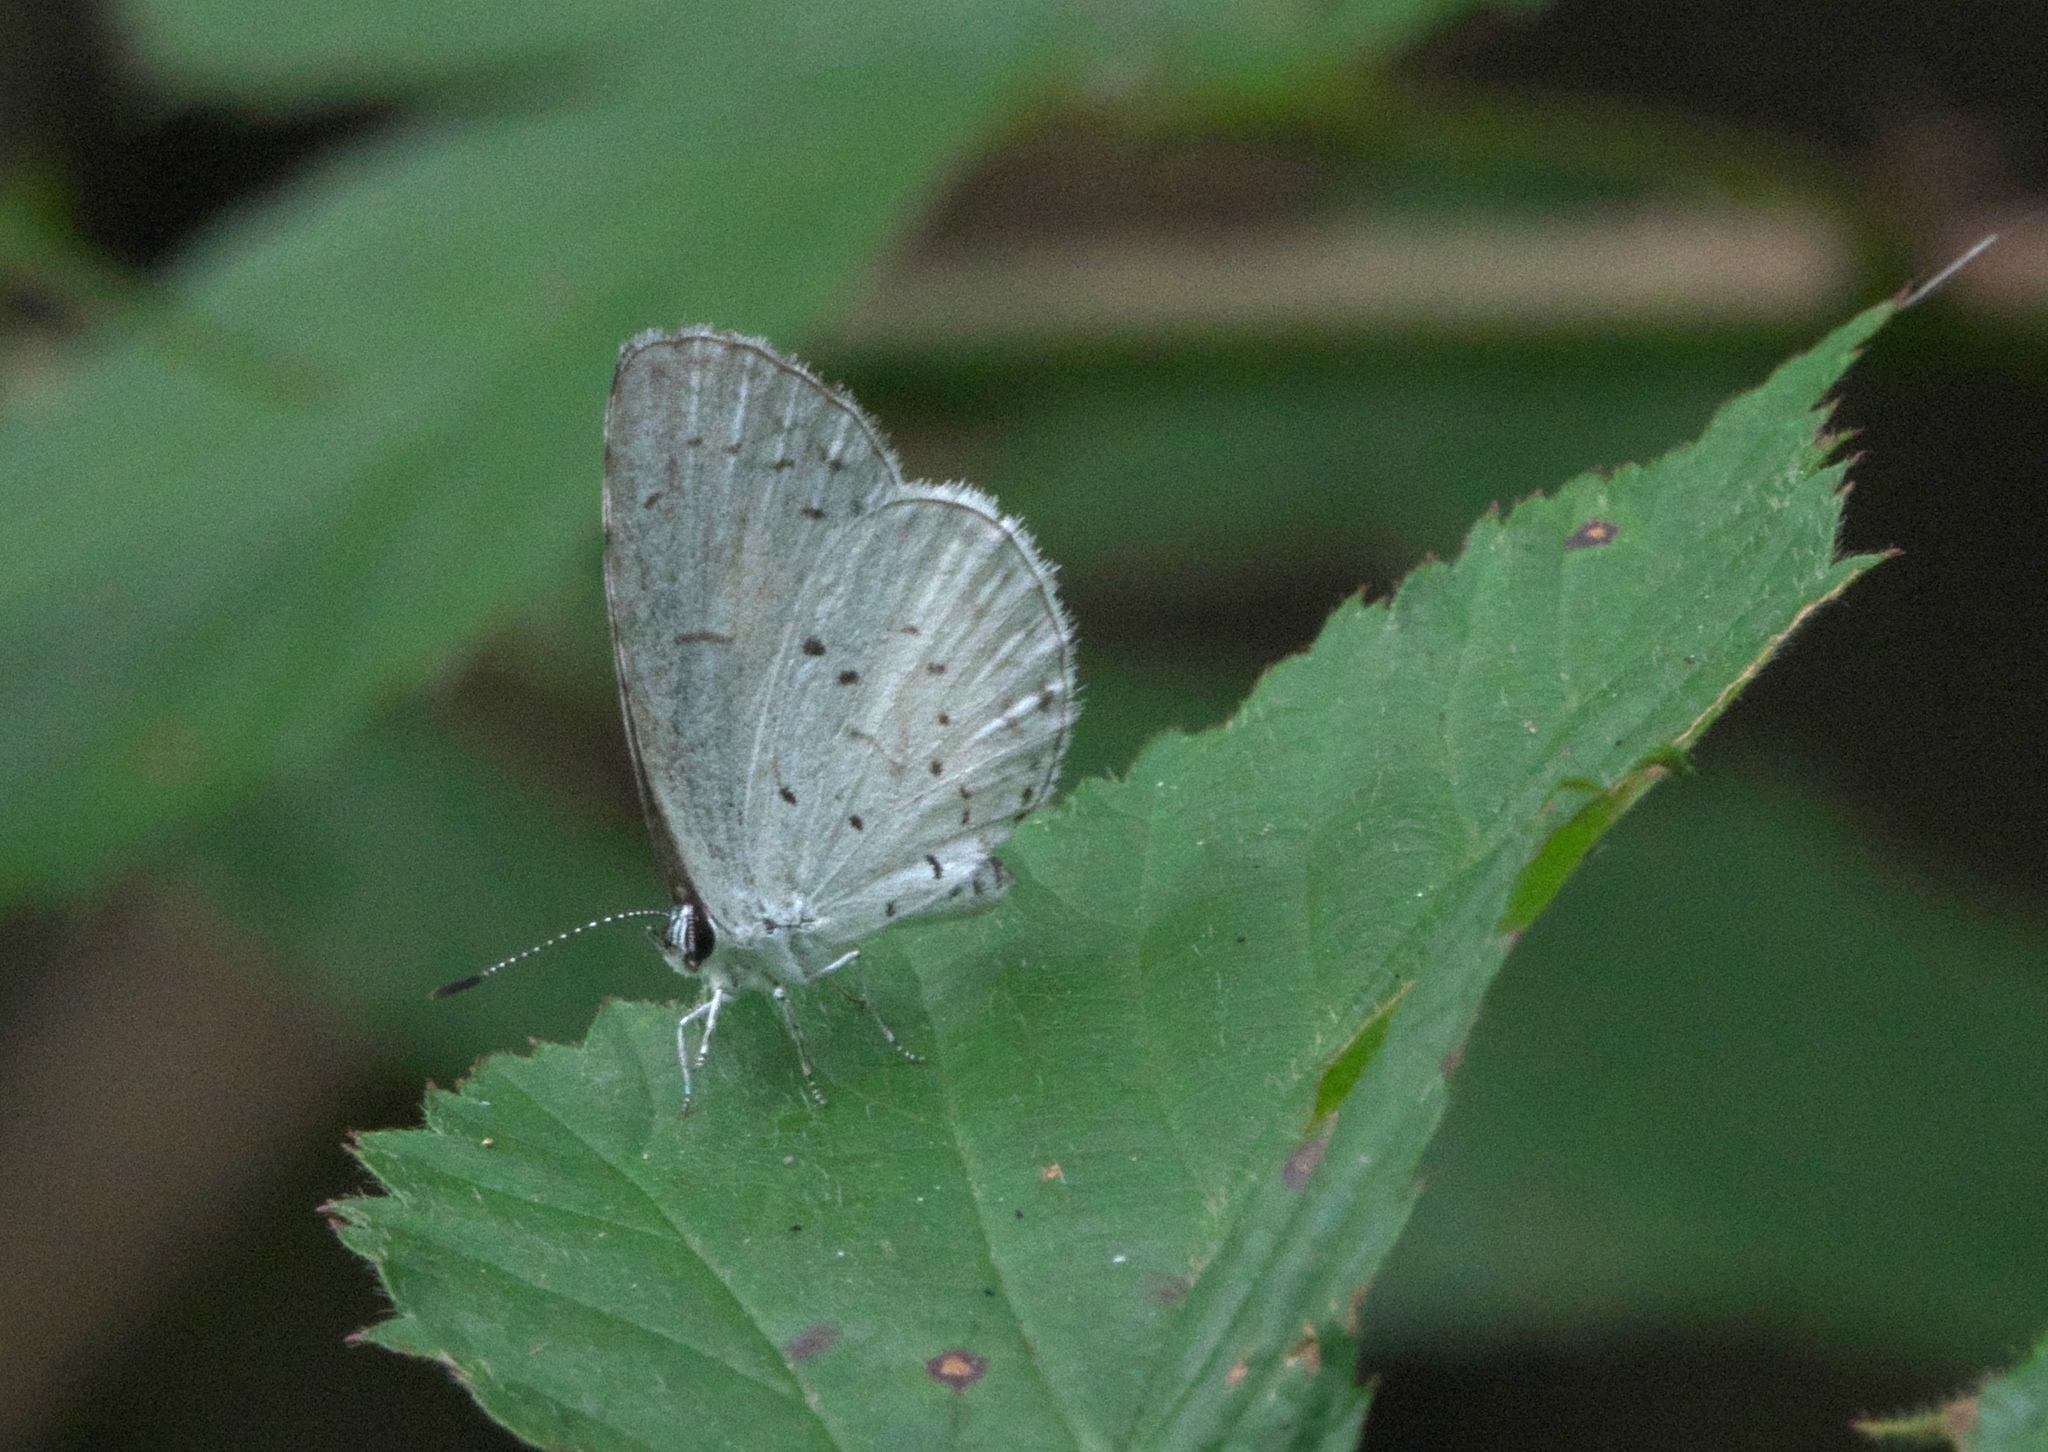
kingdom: Animalia
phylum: Arthropoda
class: Insecta
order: Lepidoptera
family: Lycaenidae
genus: Cyaniris
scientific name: Cyaniris neglecta
